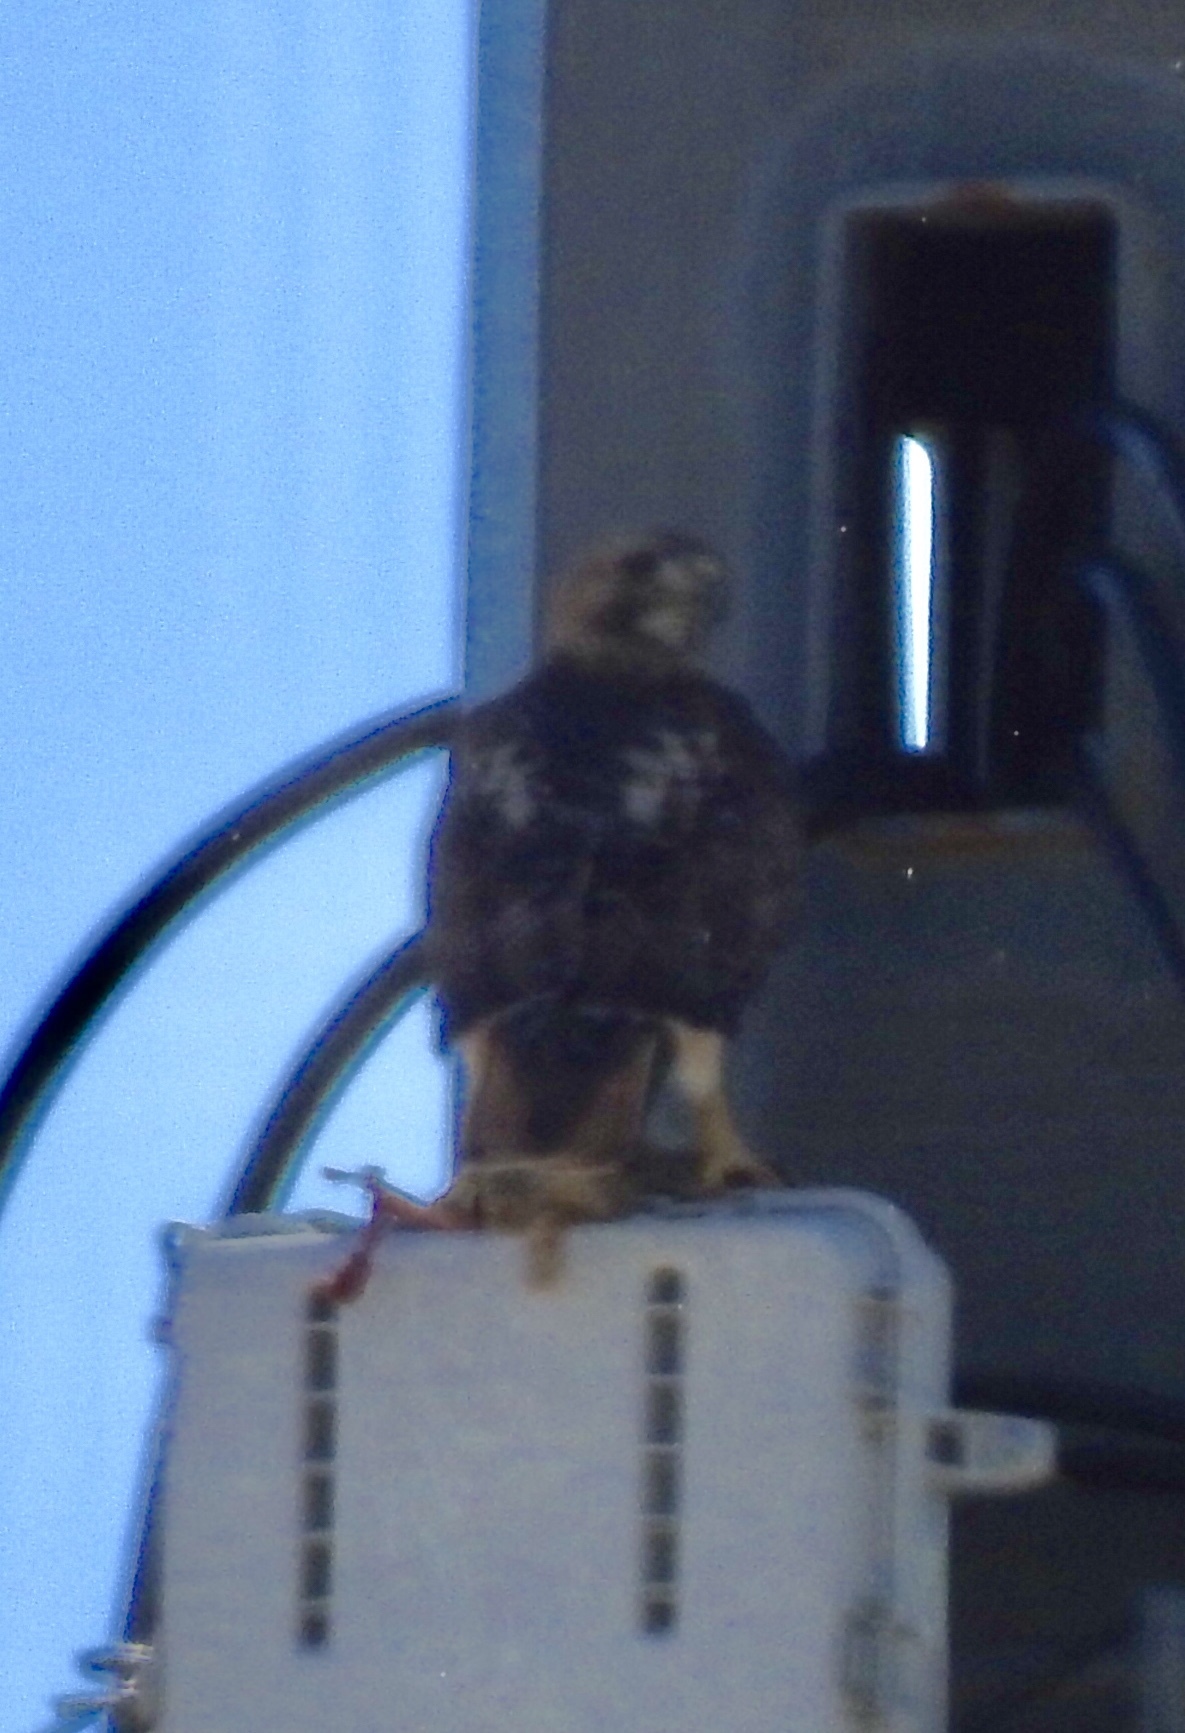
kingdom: Animalia
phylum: Chordata
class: Aves
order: Accipitriformes
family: Accipitridae
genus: Buteo
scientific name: Buteo jamaicensis
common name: Red-tailed hawk
